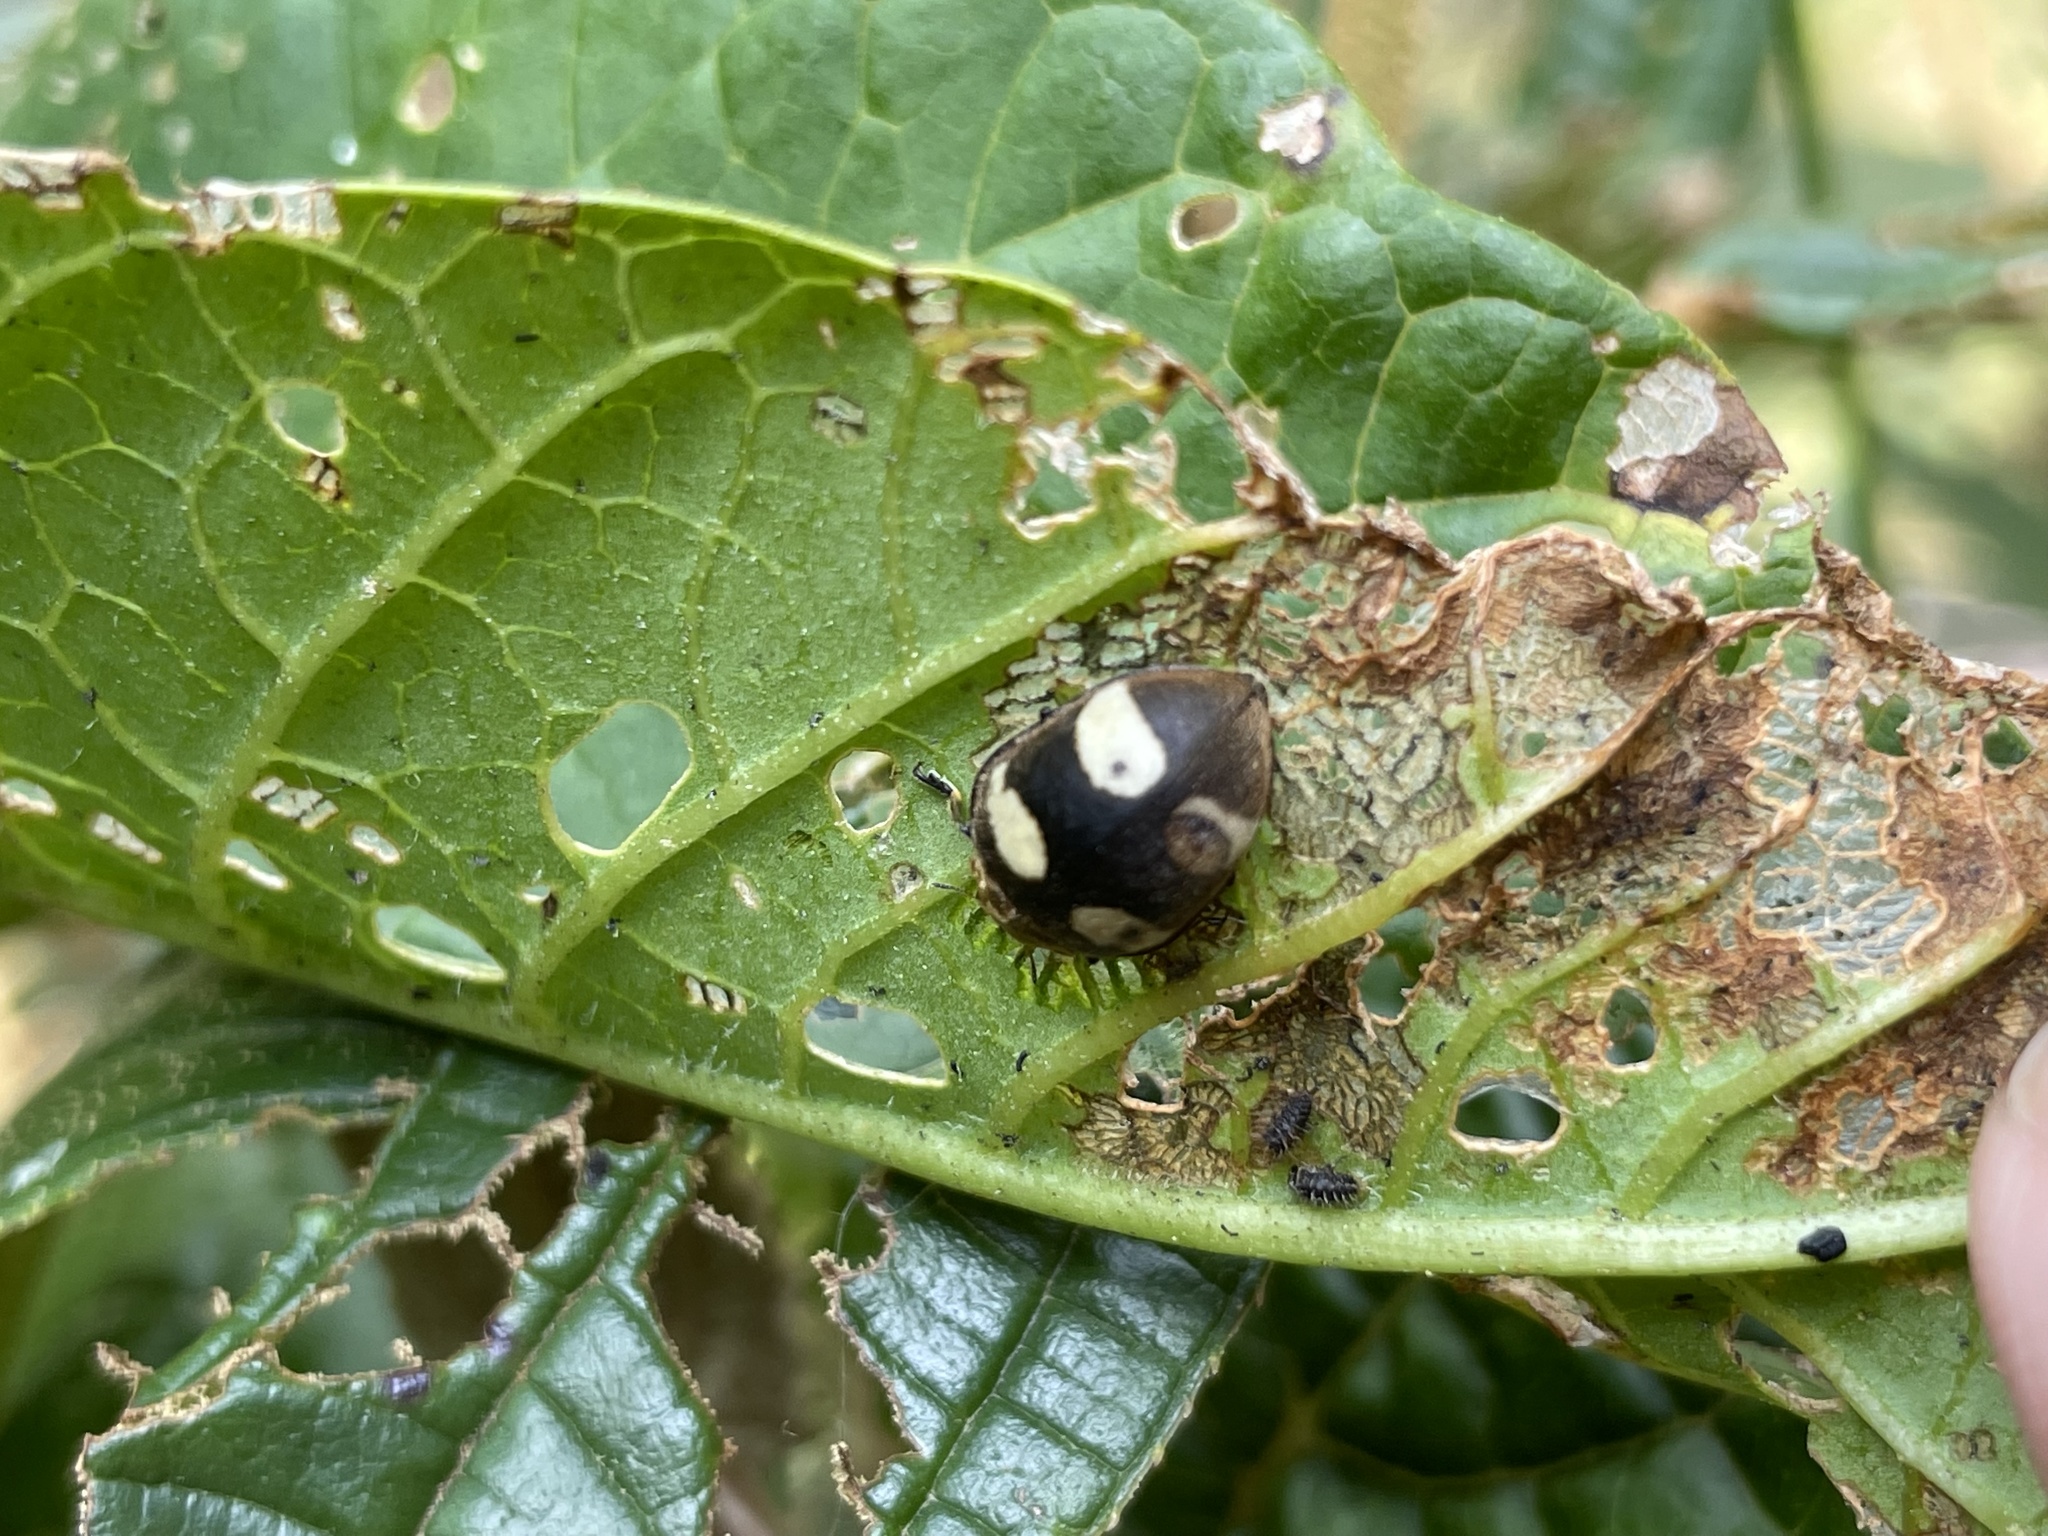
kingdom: Animalia
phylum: Arthropoda
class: Insecta
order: Coleoptera
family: Coccinellidae
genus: Epilachna
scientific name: Epilachna
